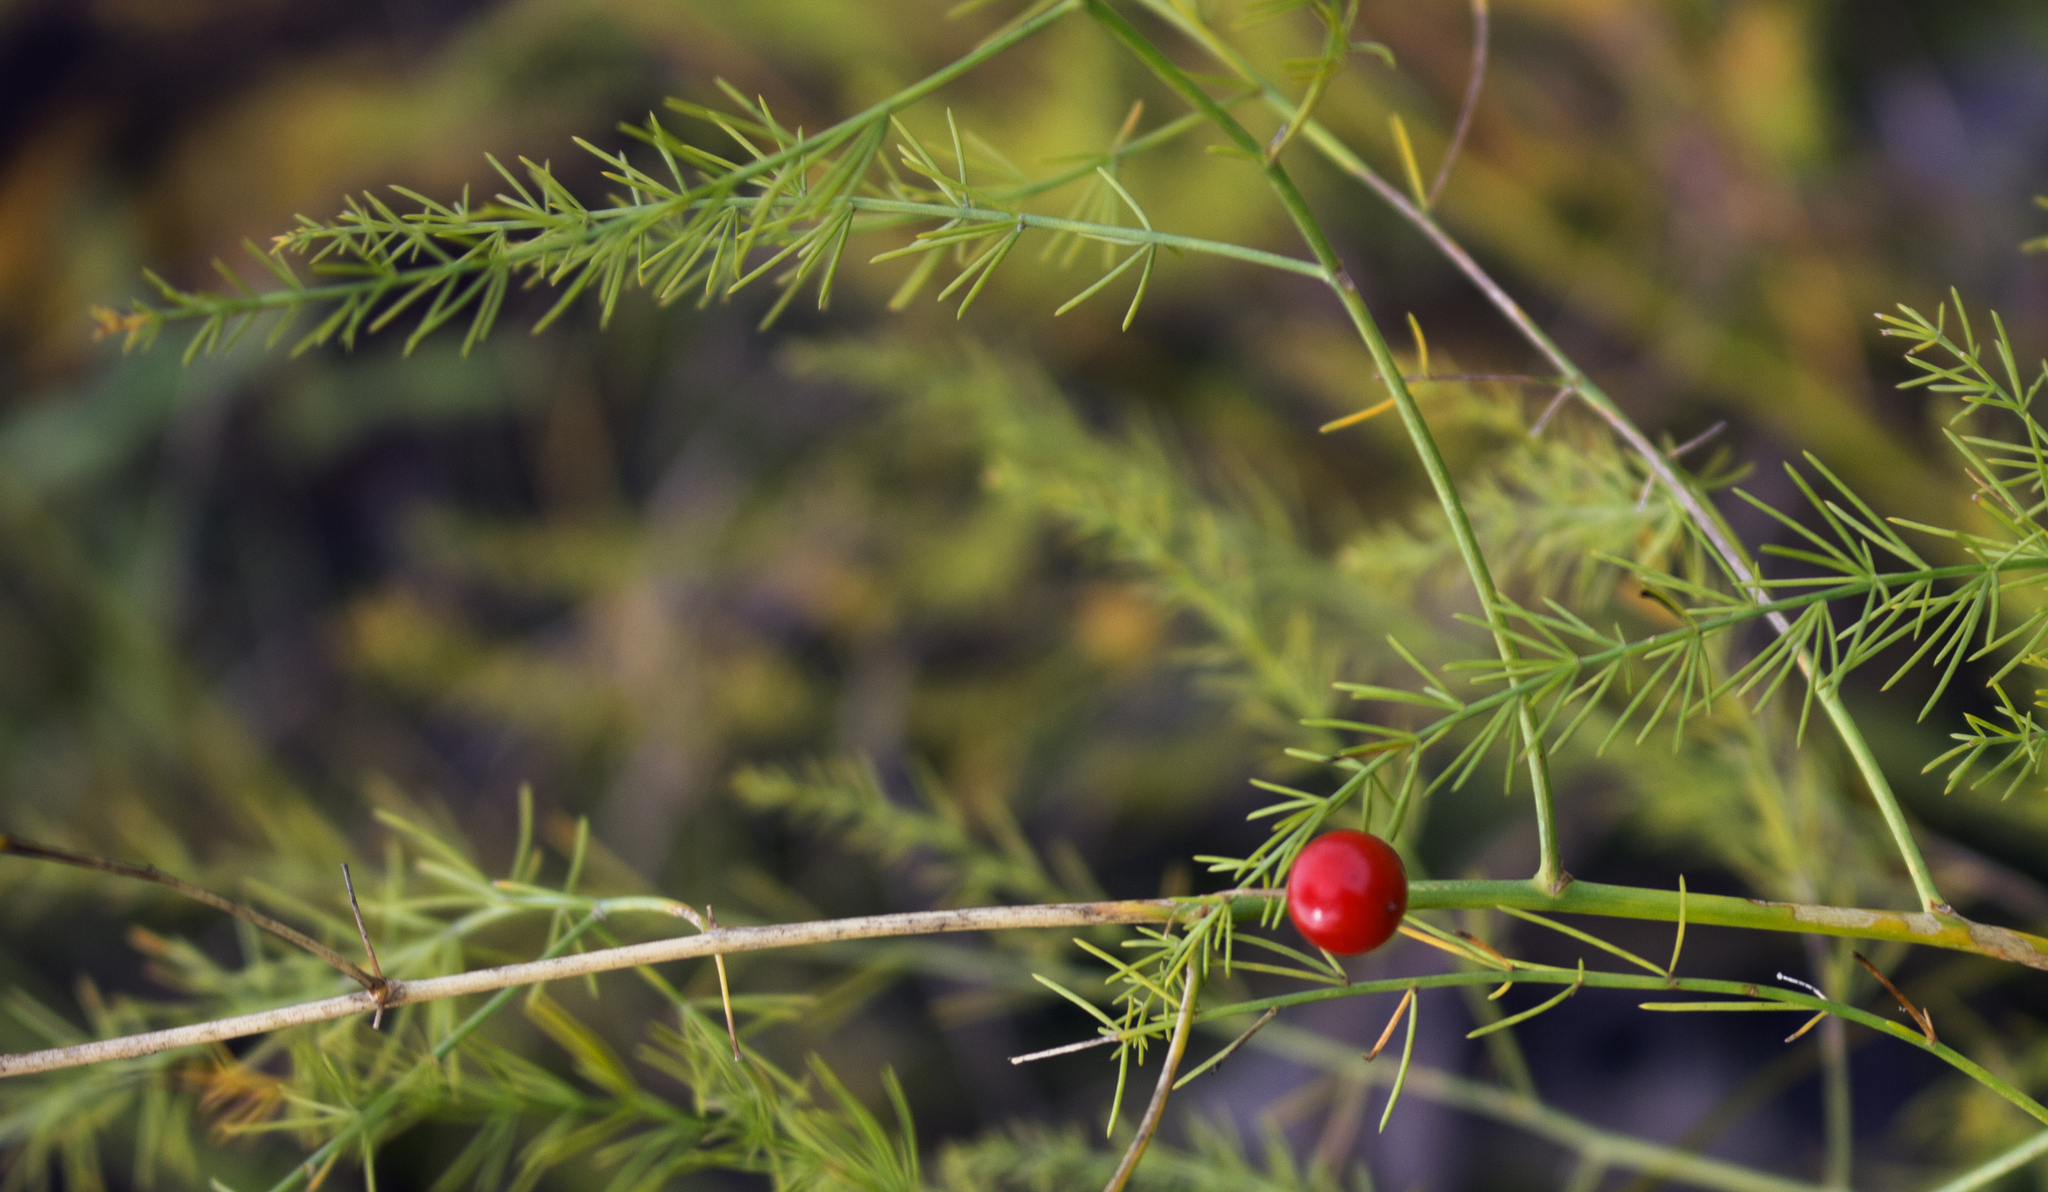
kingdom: Plantae
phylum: Tracheophyta
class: Liliopsida
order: Asparagales
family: Asparagaceae
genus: Asparagus
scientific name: Asparagus officinalis
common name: Garden asparagus
